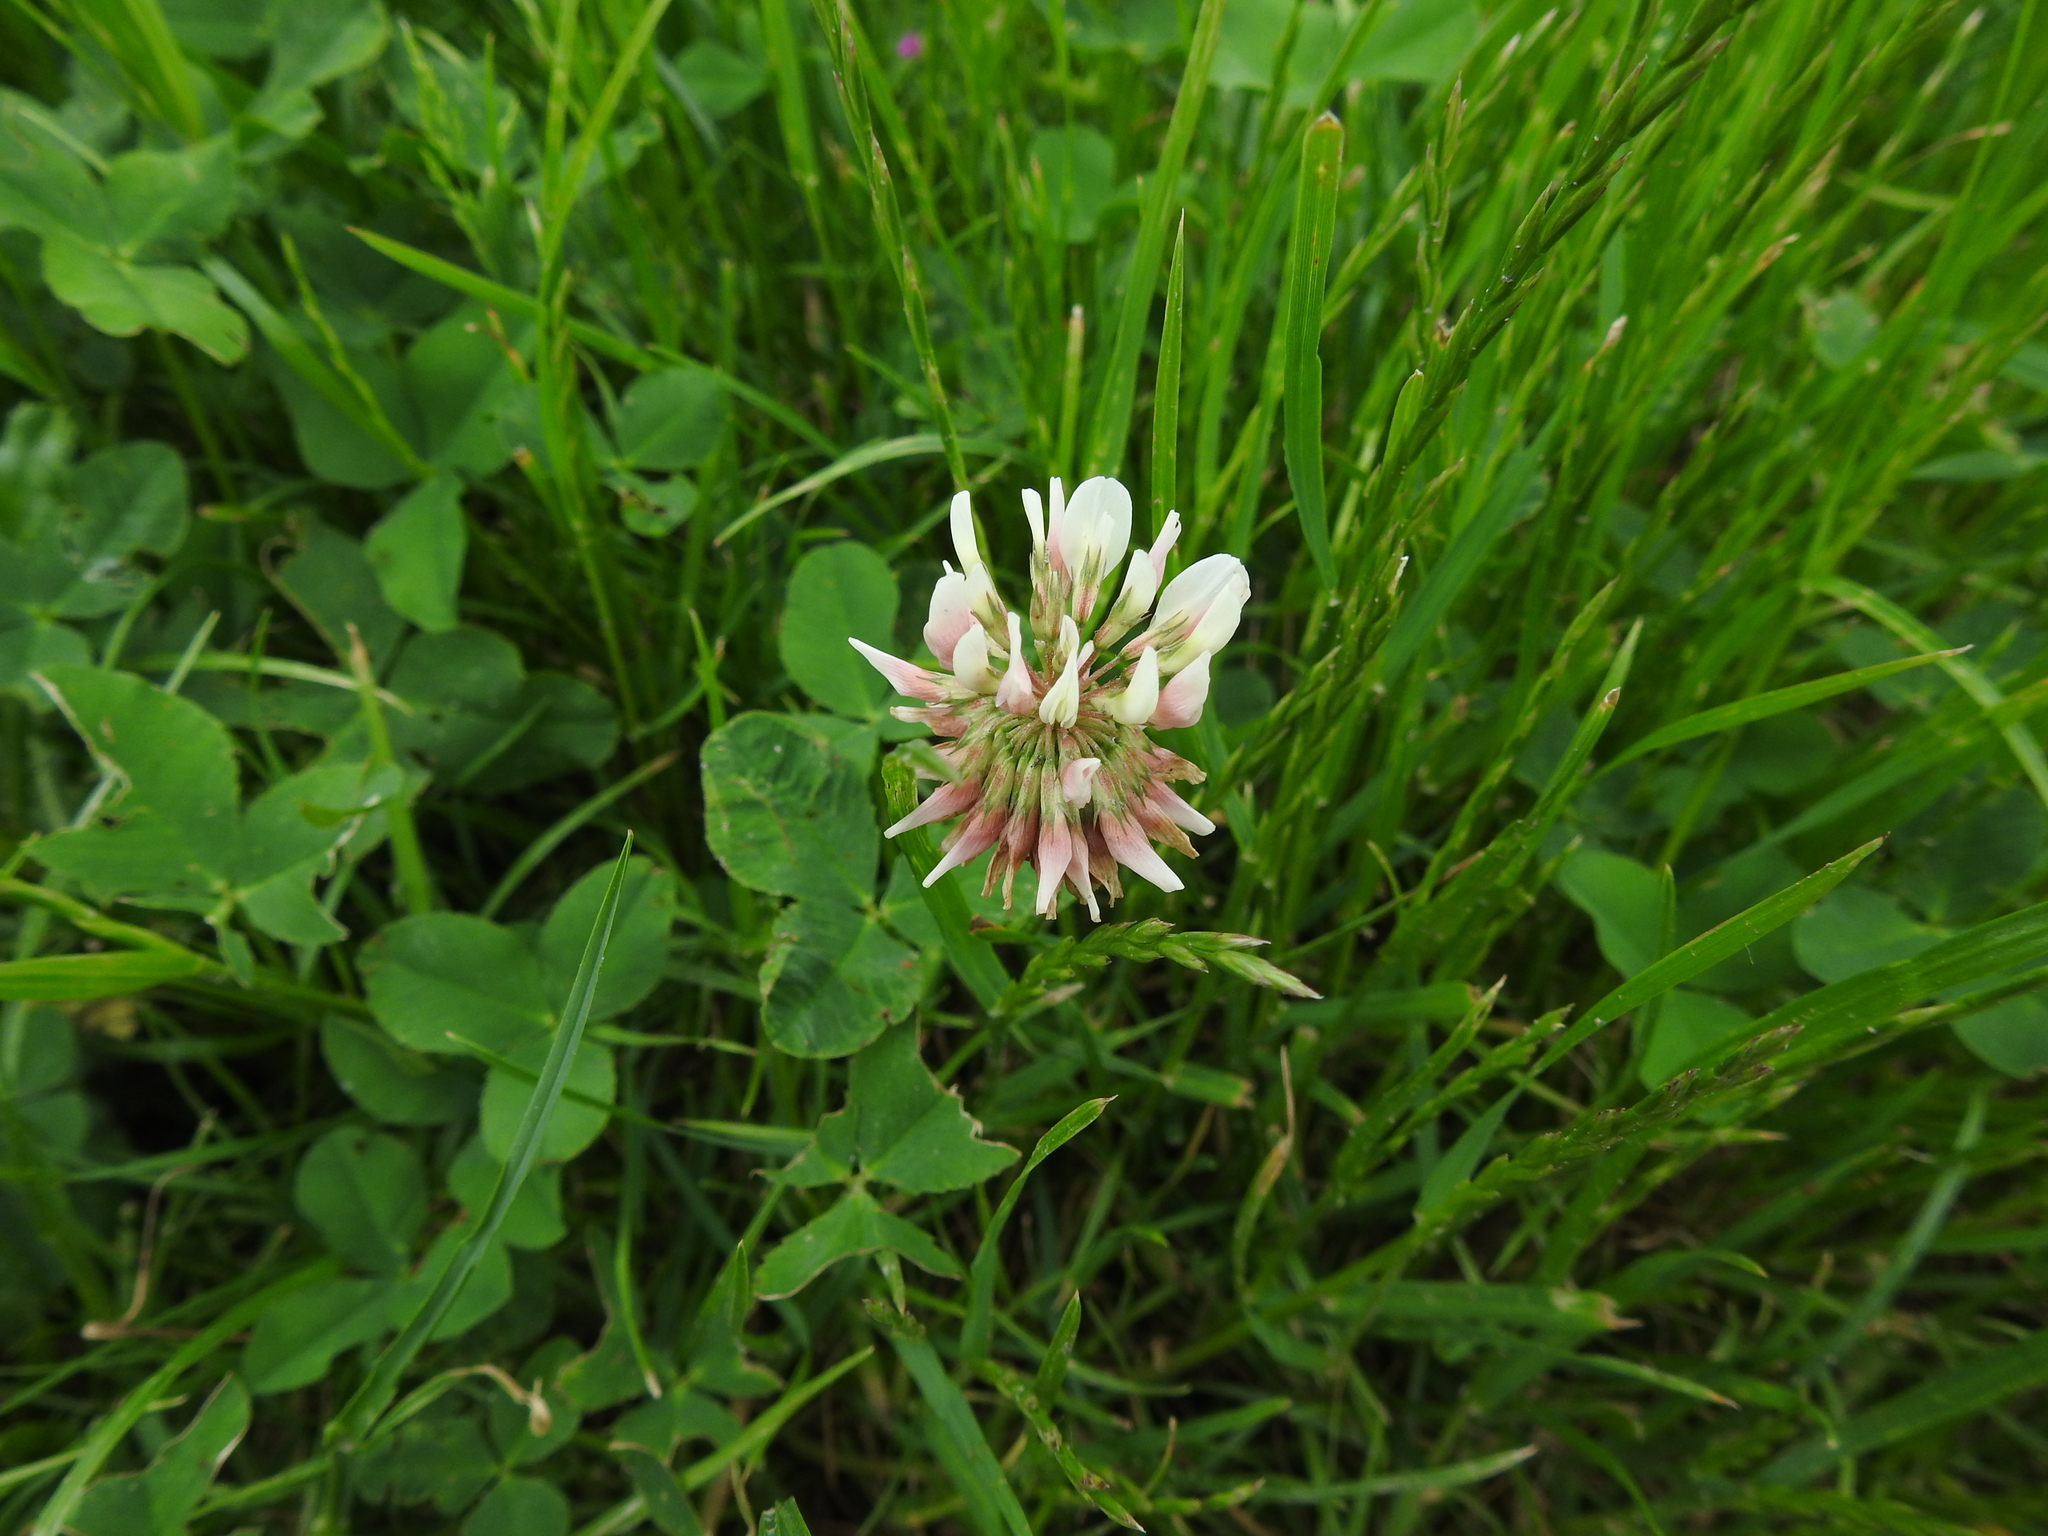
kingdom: Plantae
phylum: Tracheophyta
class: Magnoliopsida
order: Fabales
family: Fabaceae
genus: Trifolium
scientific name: Trifolium repens
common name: White clover
